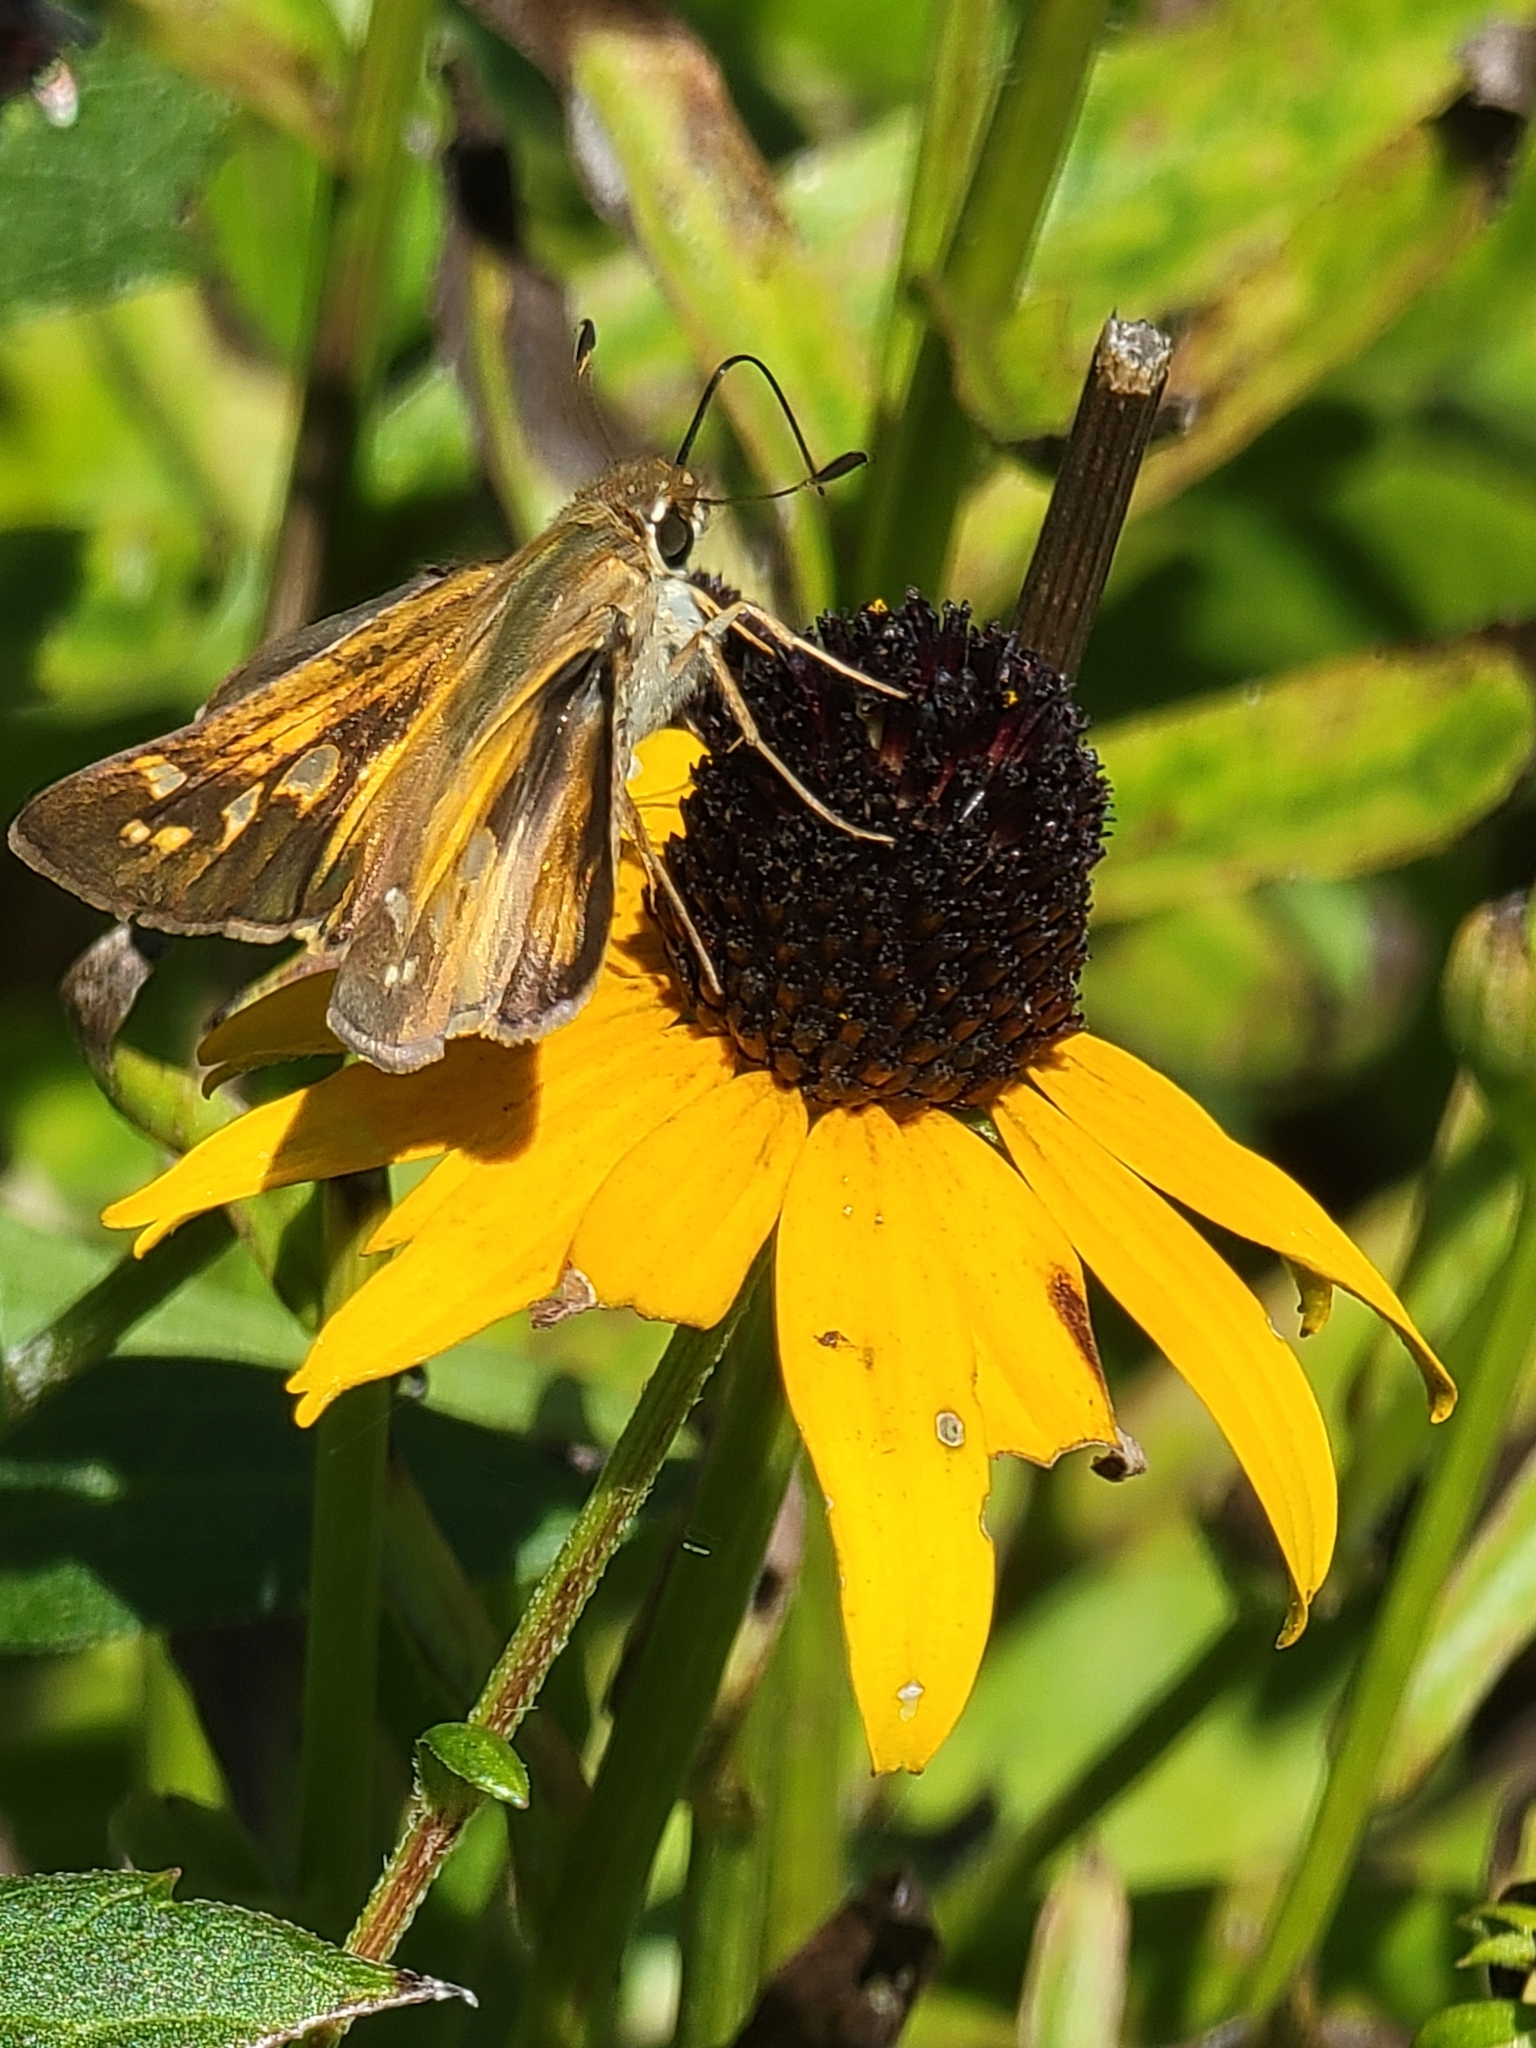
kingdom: Animalia
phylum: Arthropoda
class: Insecta
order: Lepidoptera
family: Hesperiidae
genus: Atalopedes
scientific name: Atalopedes
